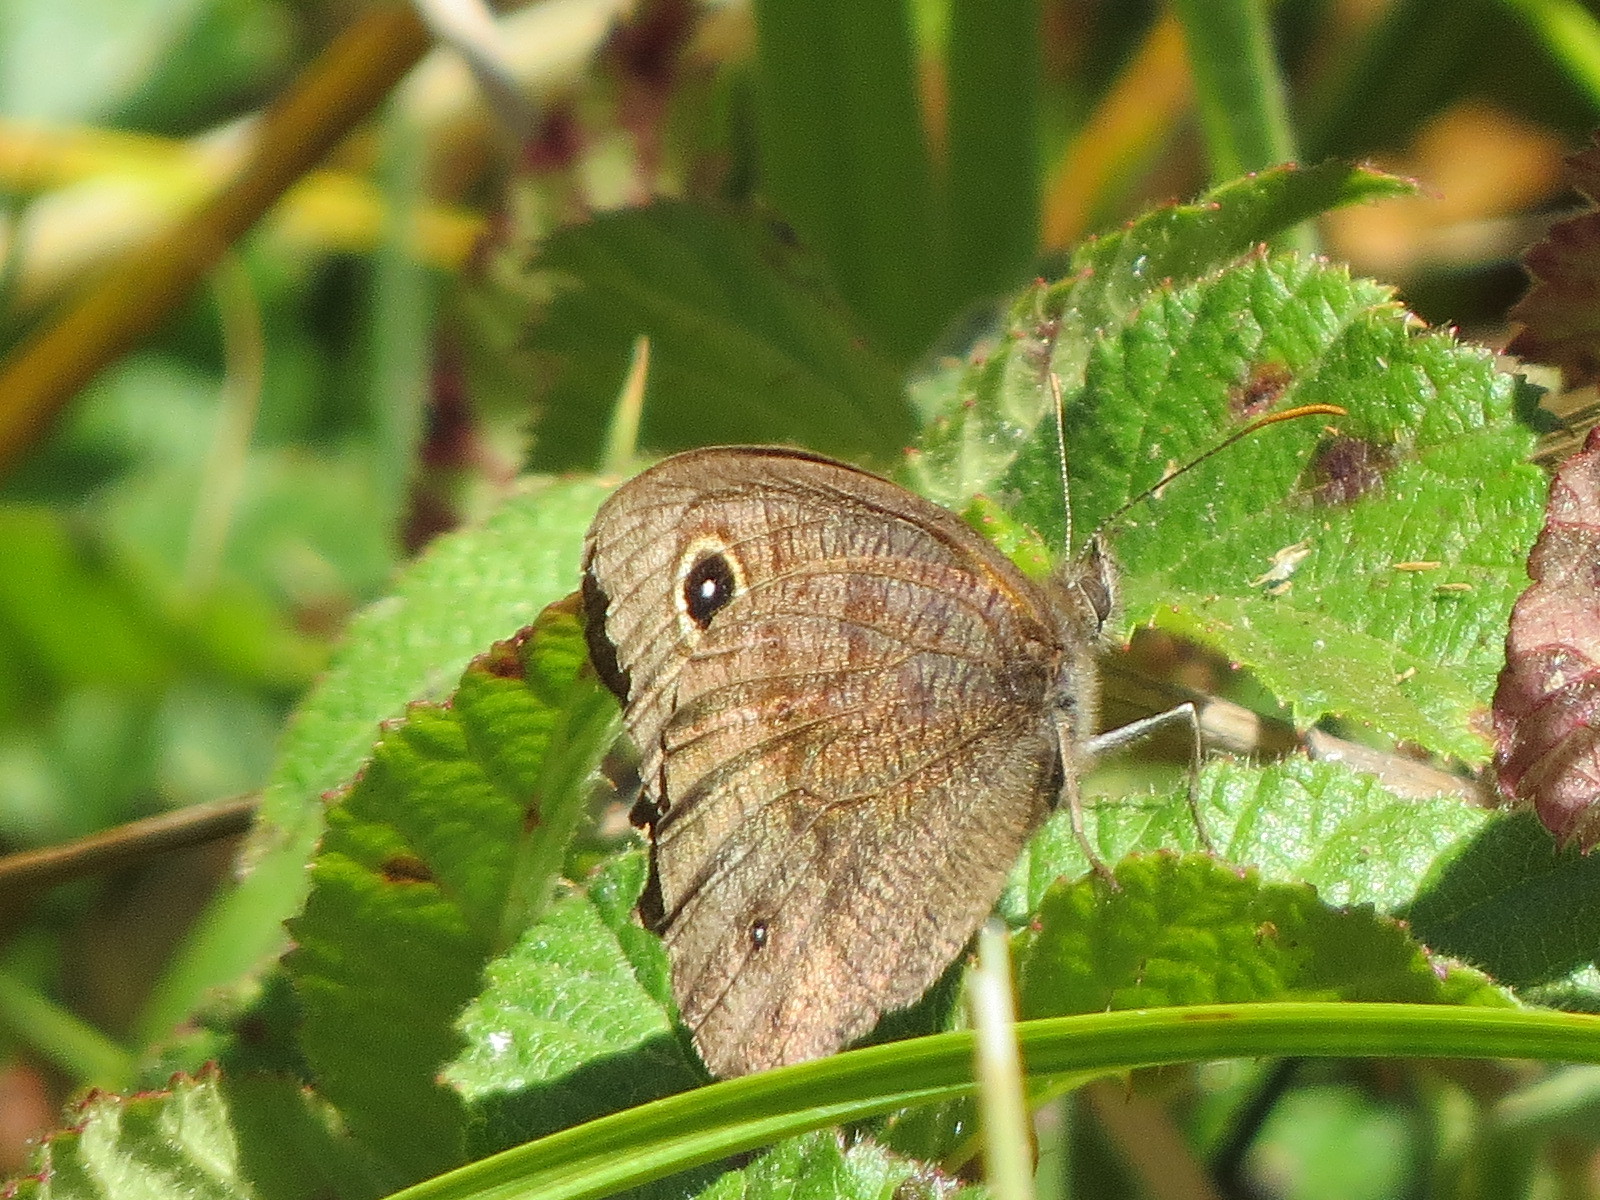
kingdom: Animalia
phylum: Arthropoda
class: Insecta
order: Lepidoptera
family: Nymphalidae
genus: Cercyonis
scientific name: Cercyonis pegala
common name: Common wood-nymph
